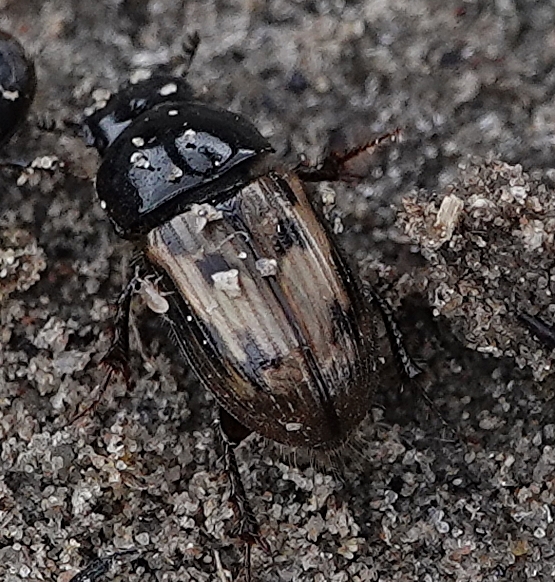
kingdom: Animalia
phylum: Arthropoda
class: Insecta
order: Coleoptera
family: Scarabaeidae
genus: Chilothorax
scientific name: Chilothorax distinctus
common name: Maculated dung beetle
